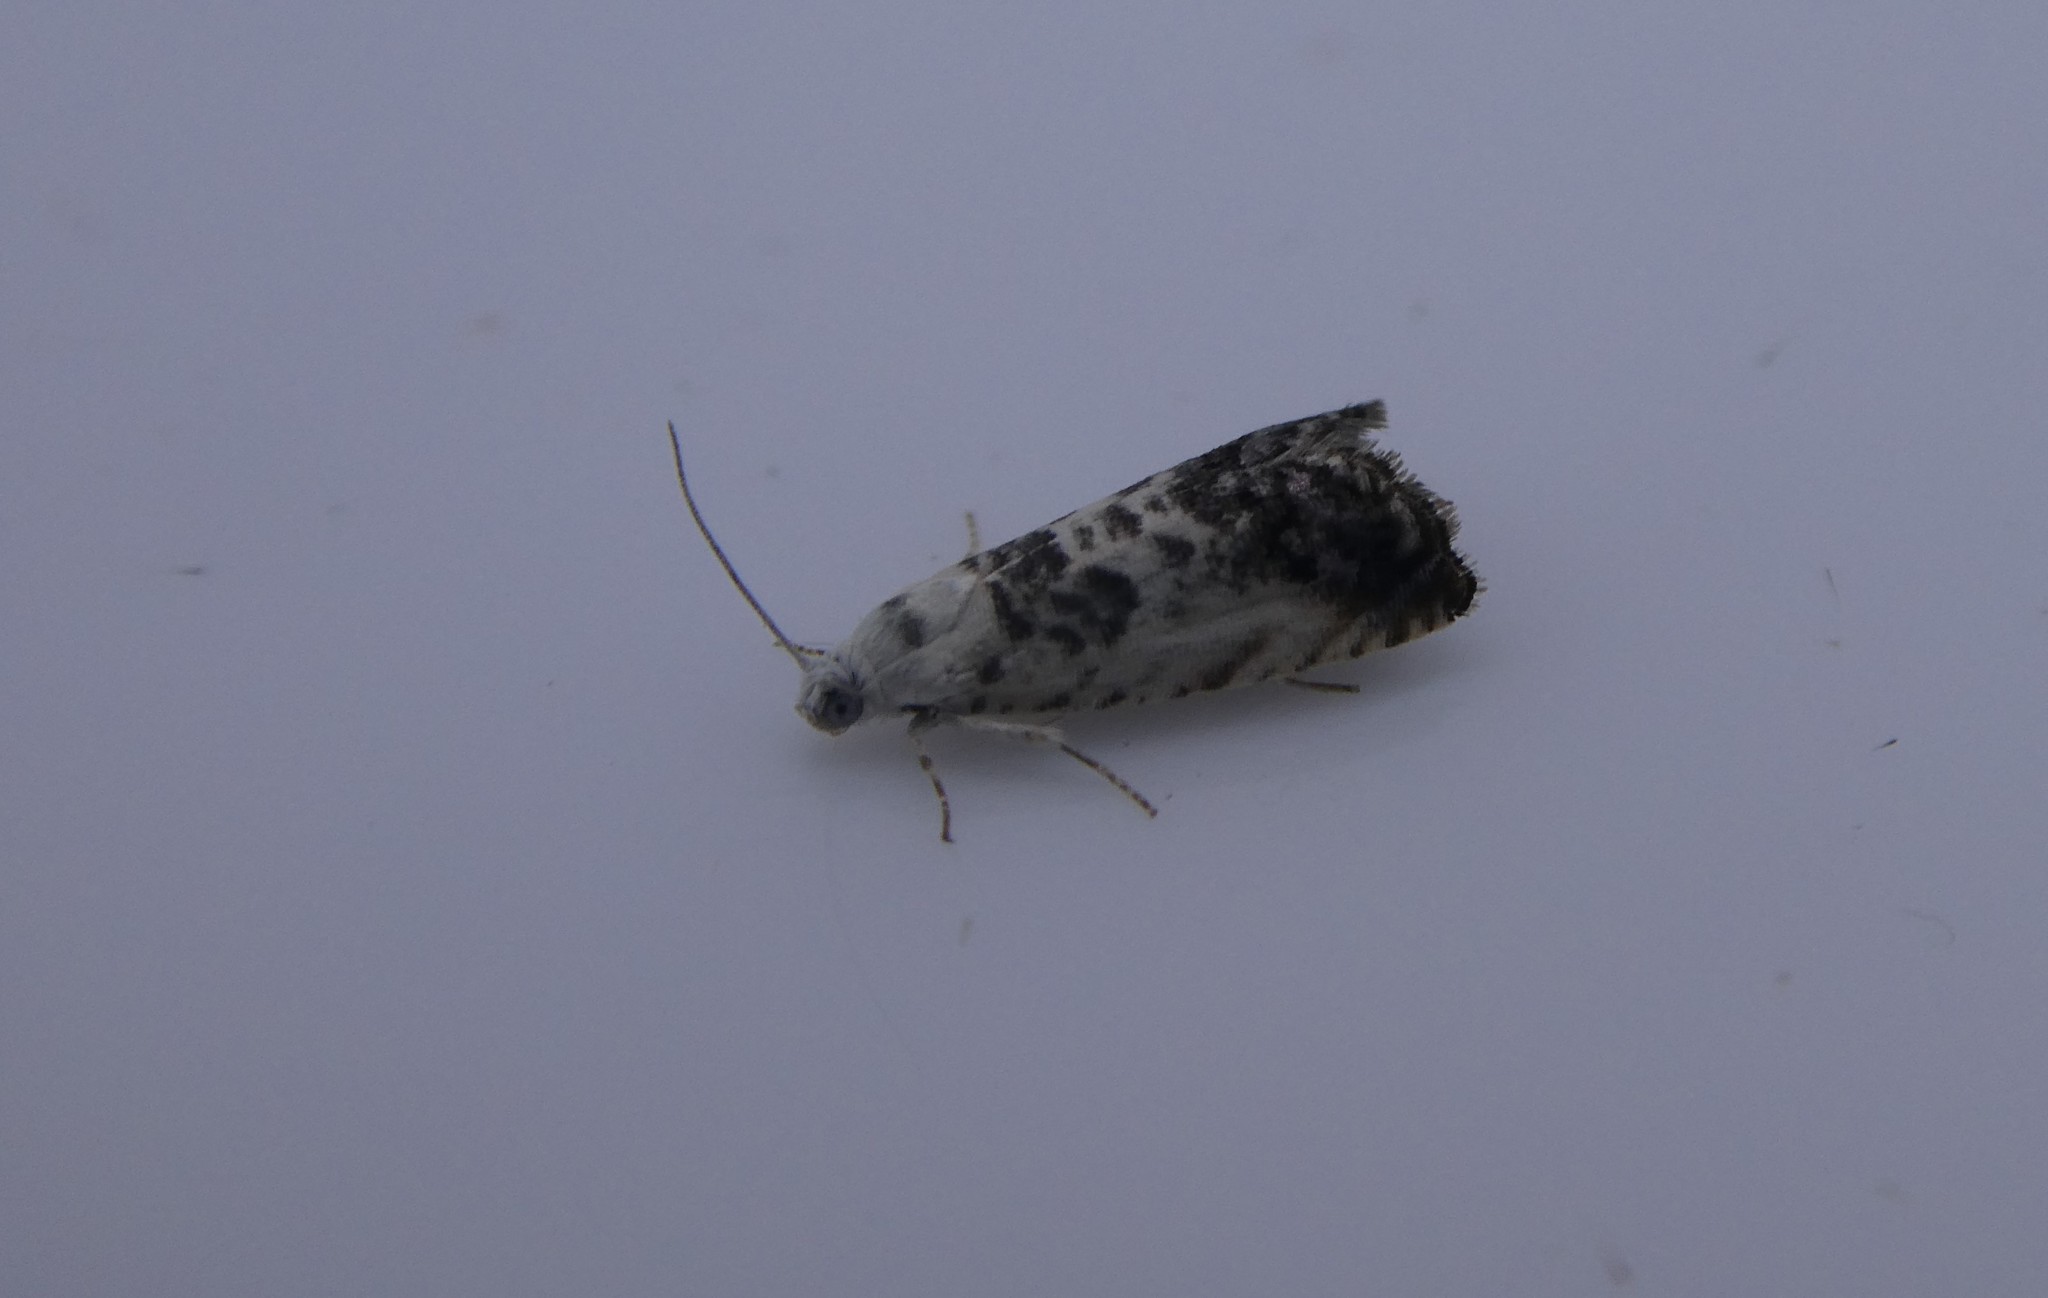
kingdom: Animalia
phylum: Arthropoda
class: Insecta
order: Lepidoptera
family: Tortricidae
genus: Cydia
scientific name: Cydia gallaesaliciana
